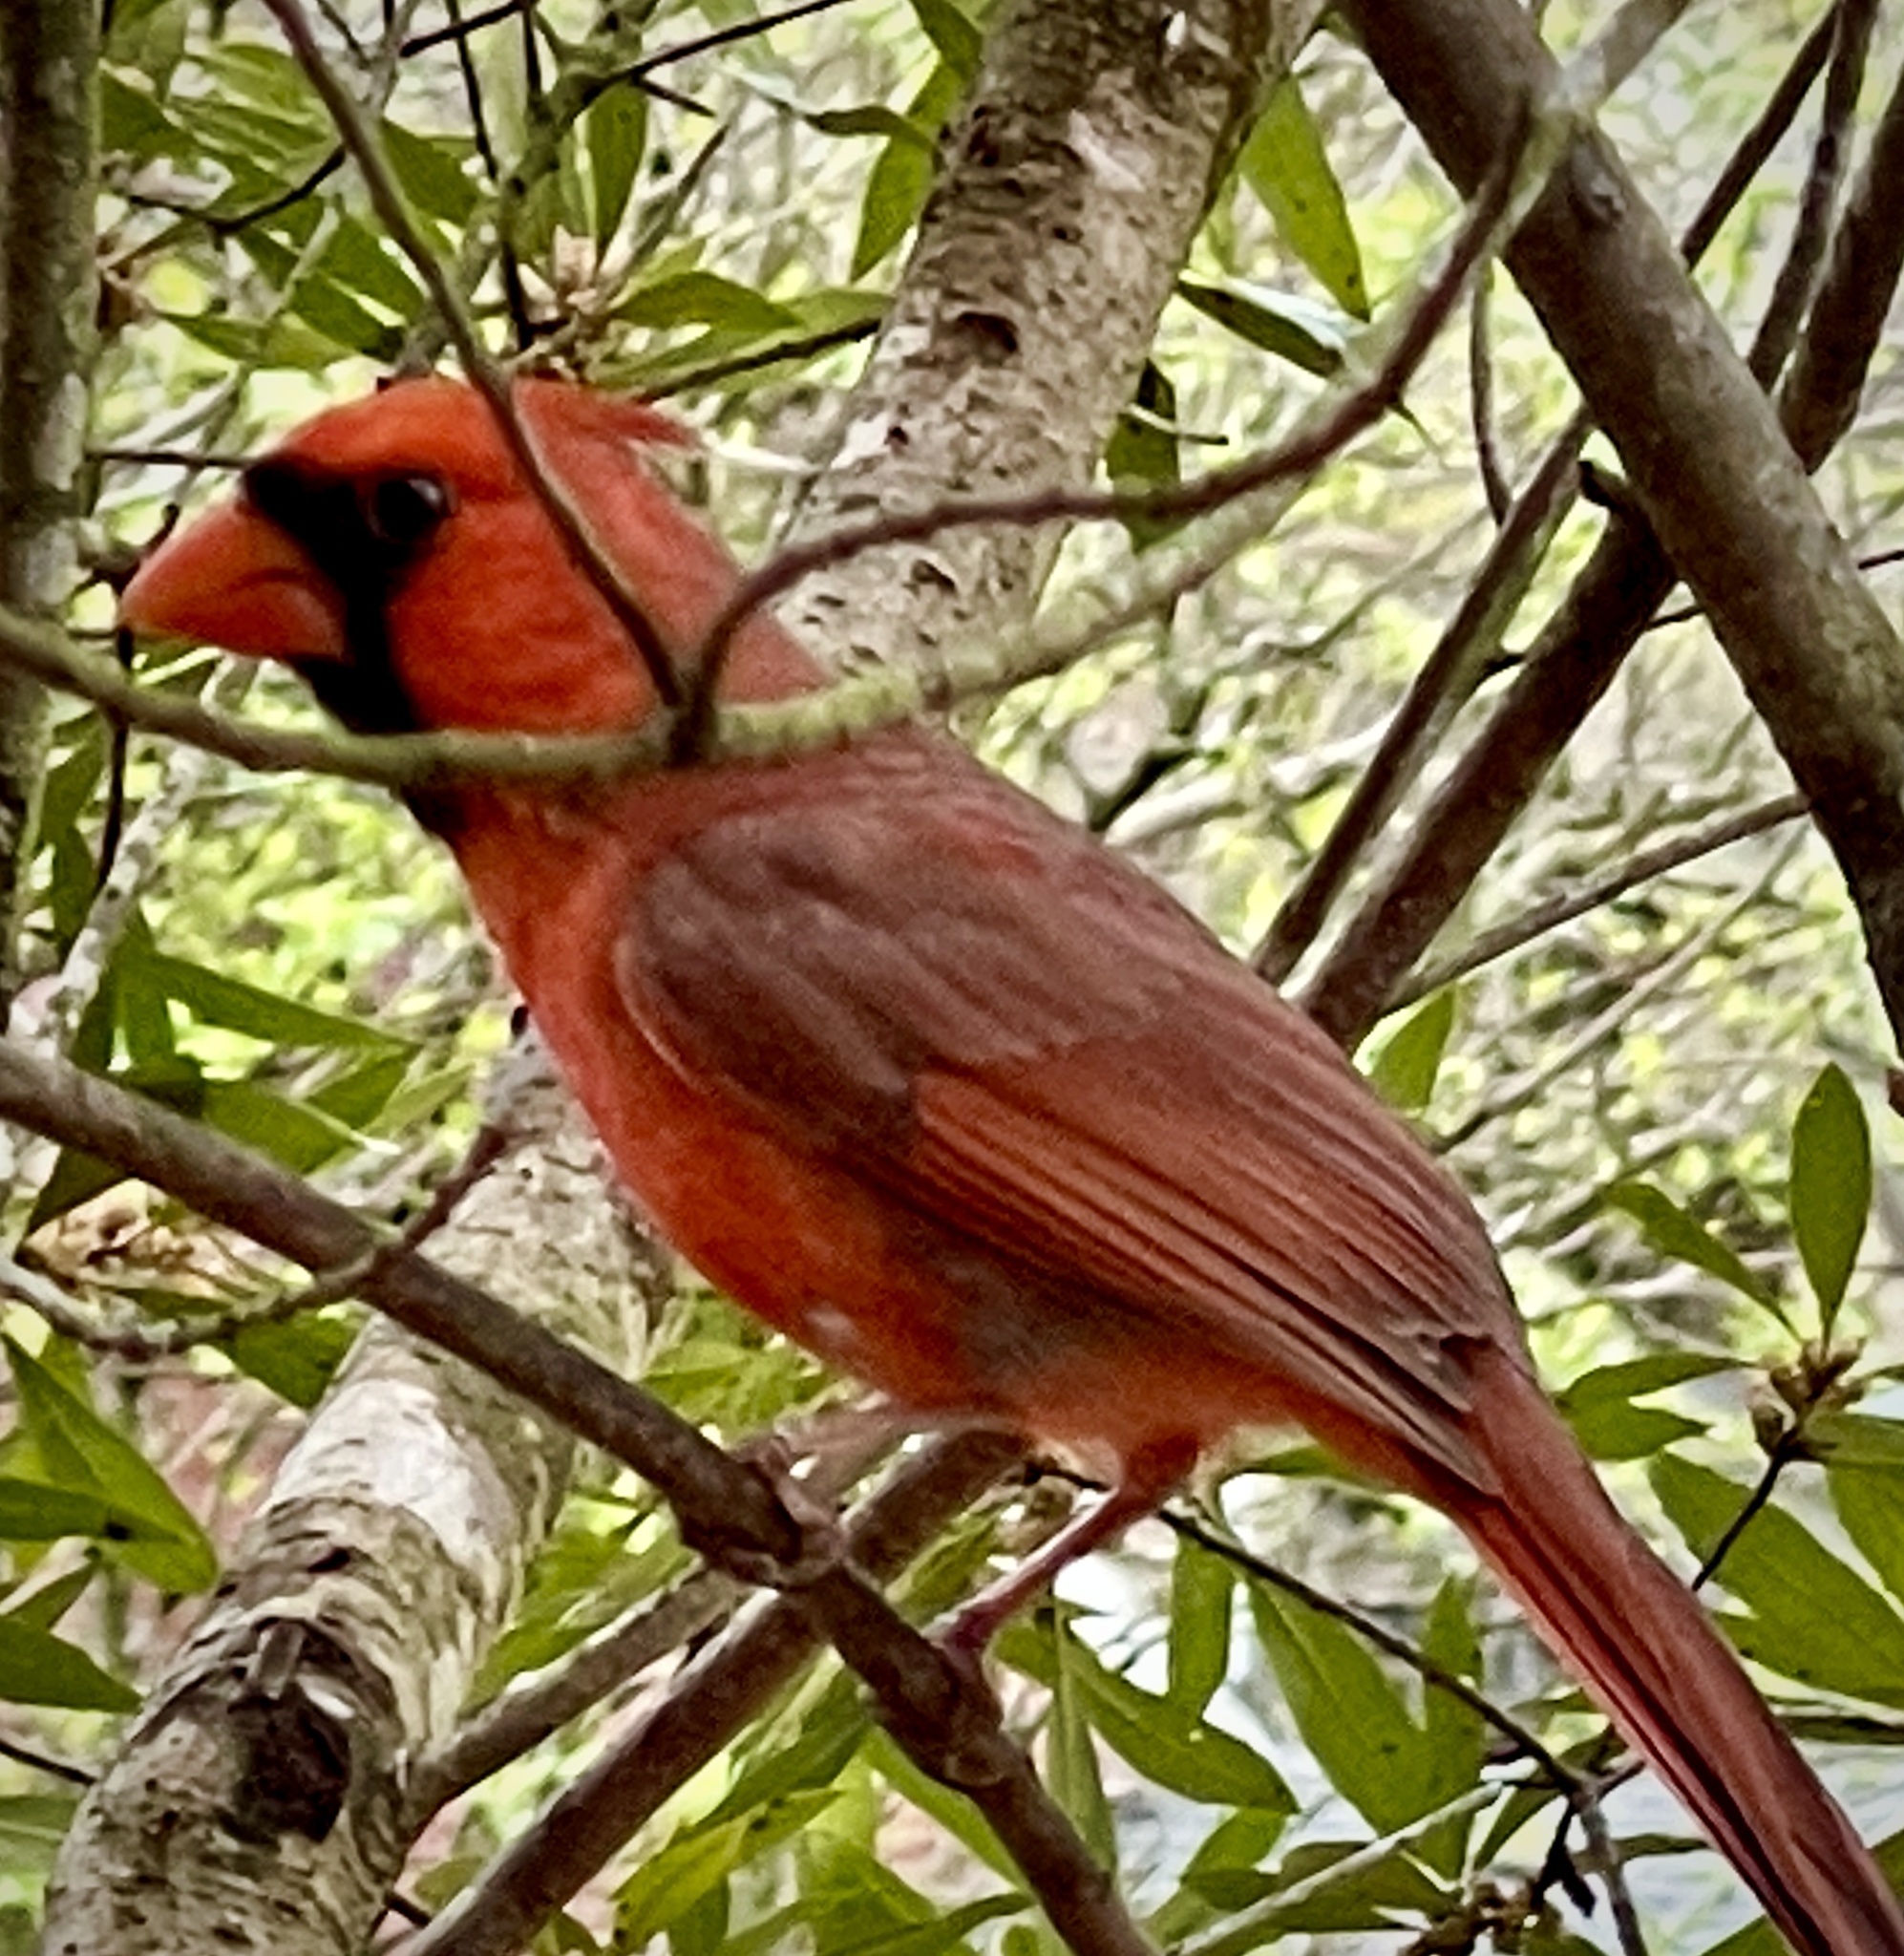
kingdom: Animalia
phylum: Chordata
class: Aves
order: Passeriformes
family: Cardinalidae
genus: Cardinalis
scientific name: Cardinalis cardinalis
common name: Northern cardinal
